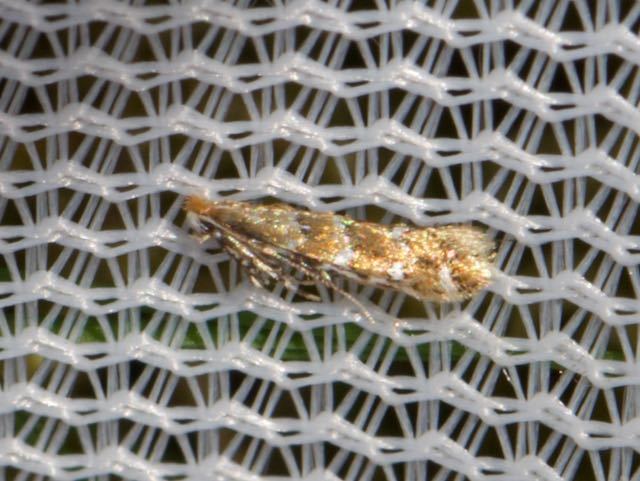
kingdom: Animalia
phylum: Arthropoda
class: Insecta
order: Lepidoptera
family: Gracillariidae
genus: Cameraria
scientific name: Cameraria ohridella
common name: Horse-chestnut leaf-miner
